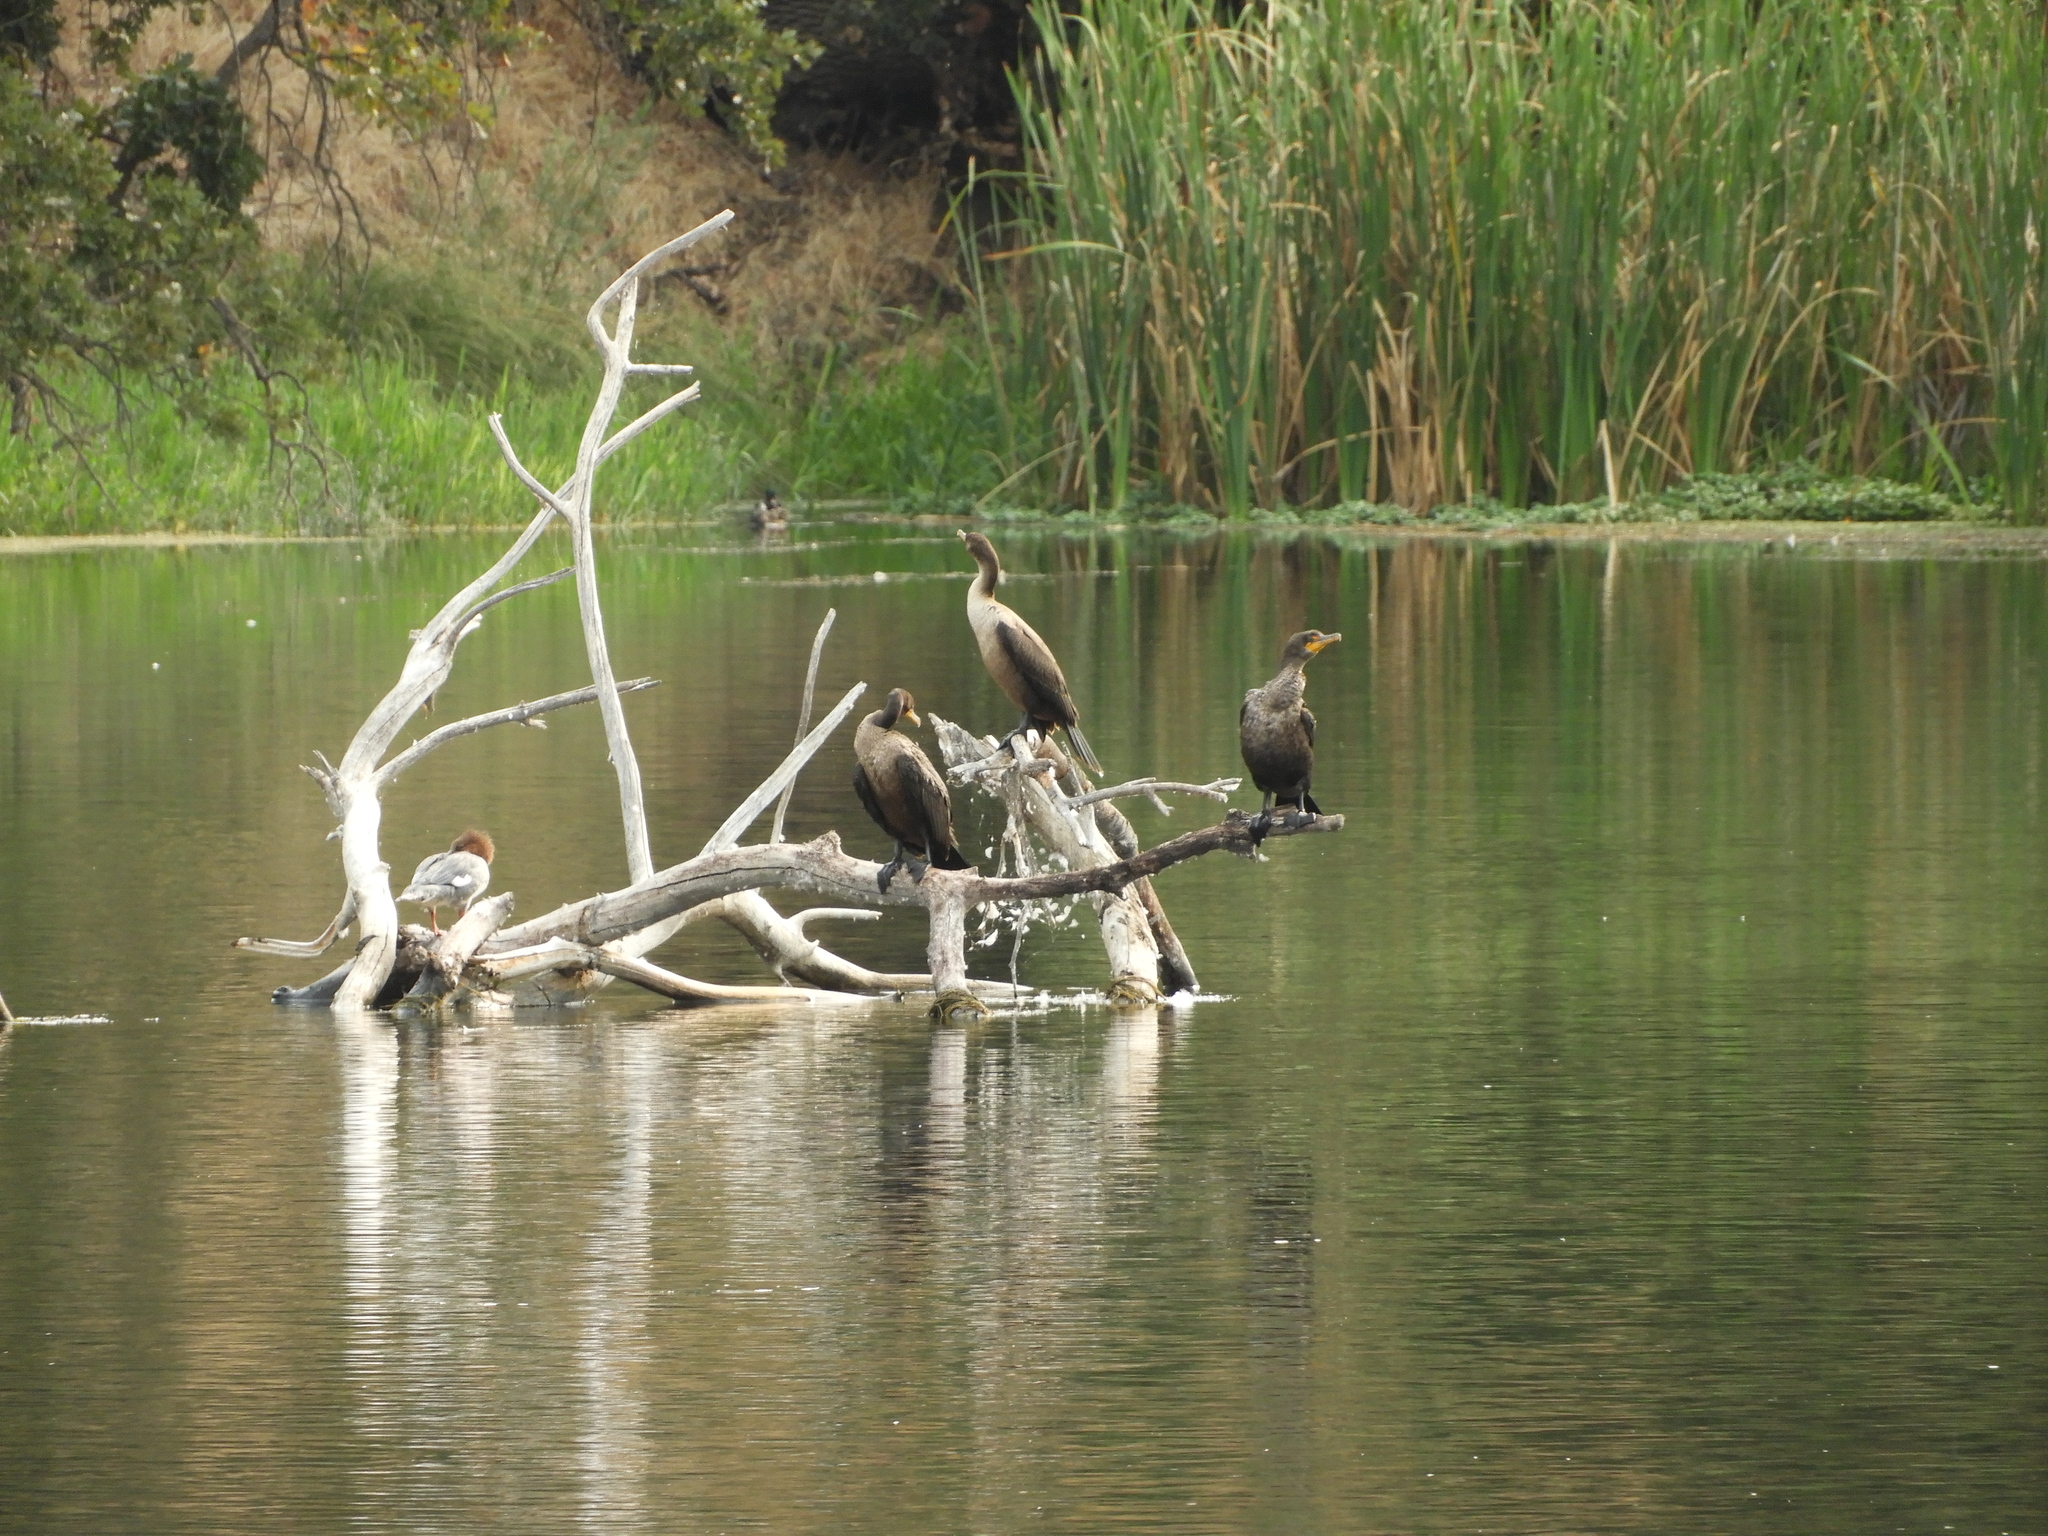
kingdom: Animalia
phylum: Chordata
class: Aves
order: Suliformes
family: Phalacrocoracidae
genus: Phalacrocorax
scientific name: Phalacrocorax auritus
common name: Double-crested cormorant
